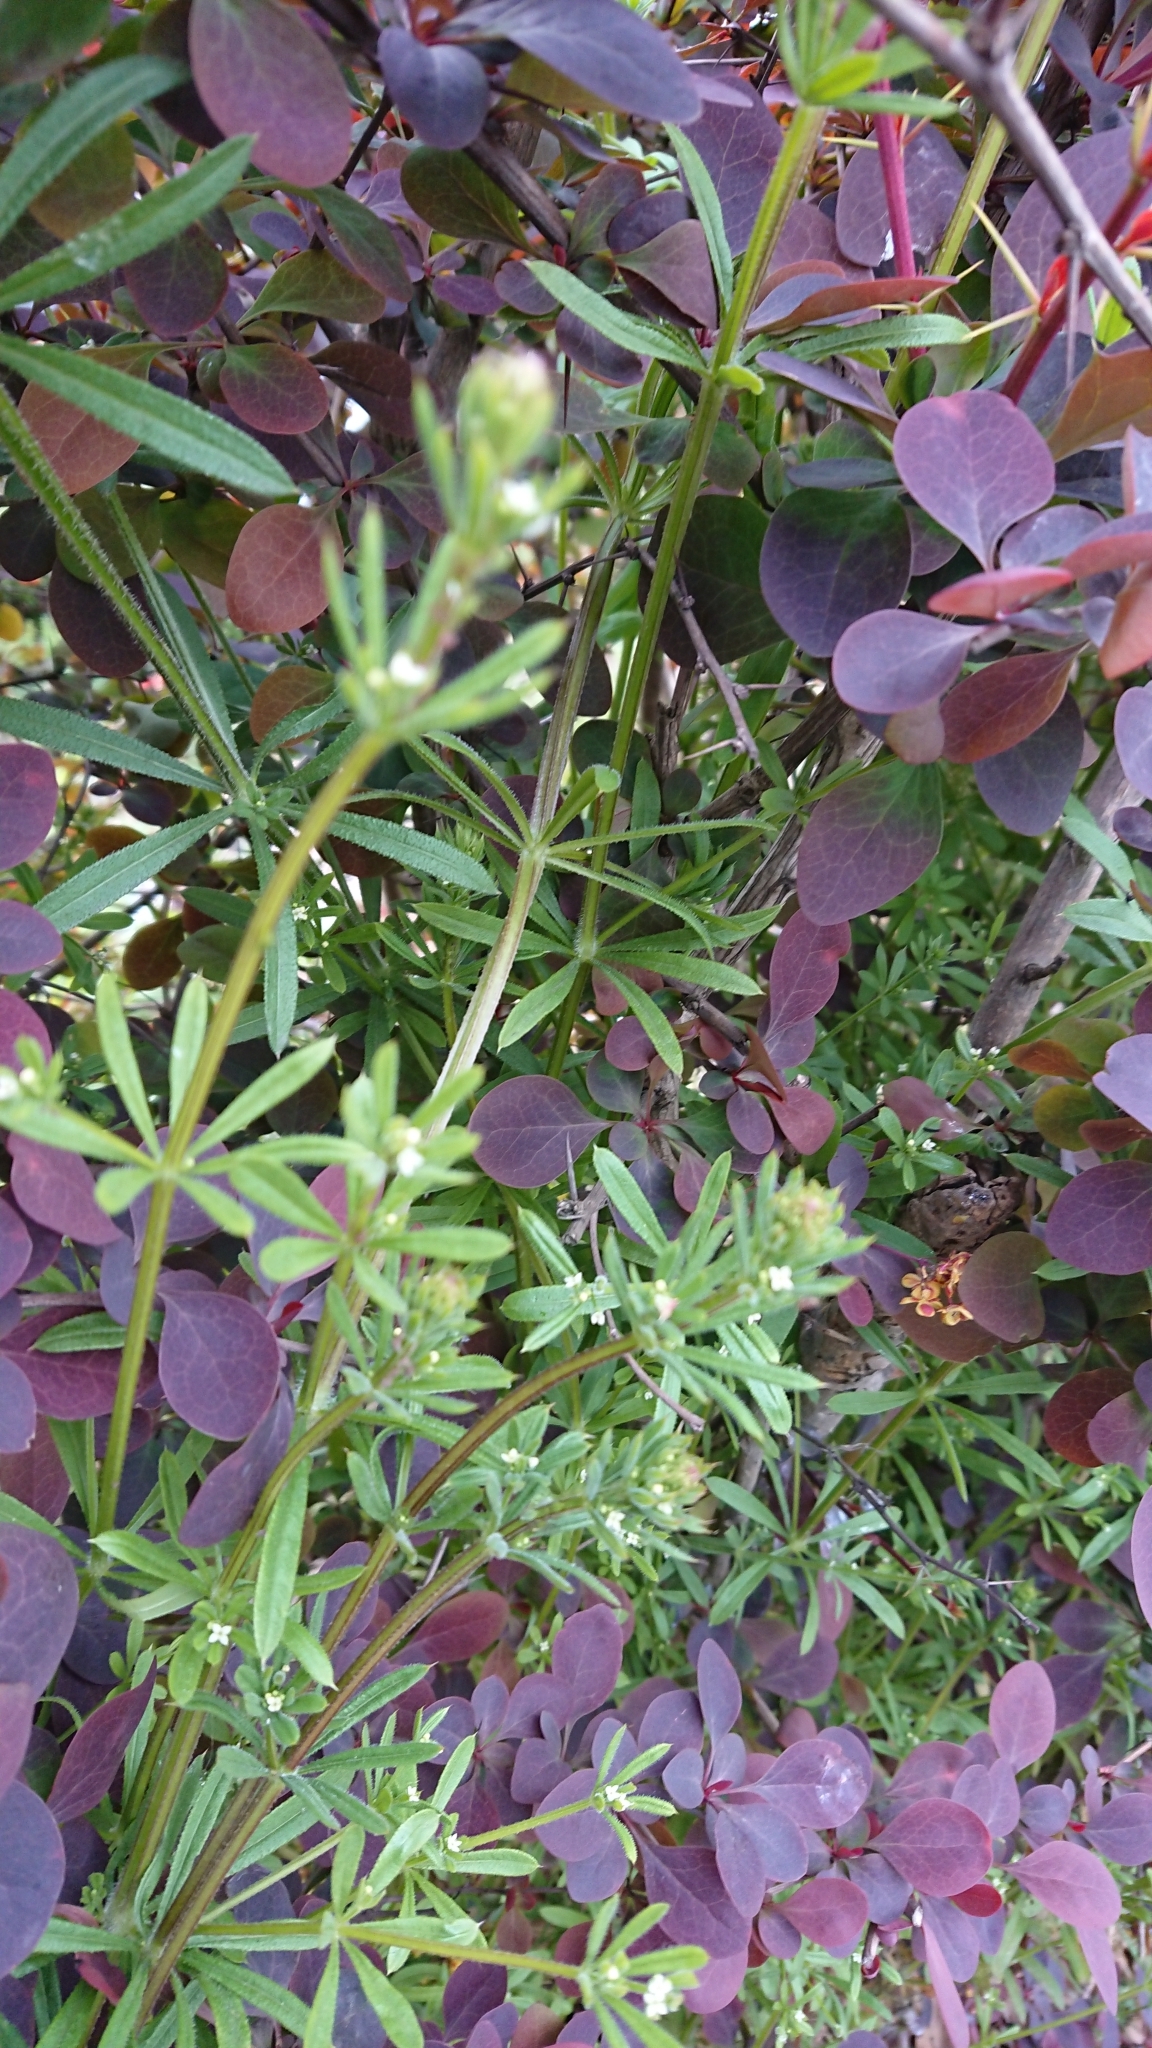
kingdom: Plantae
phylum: Tracheophyta
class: Magnoliopsida
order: Gentianales
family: Rubiaceae
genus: Galium
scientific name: Galium aparine
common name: Cleavers
